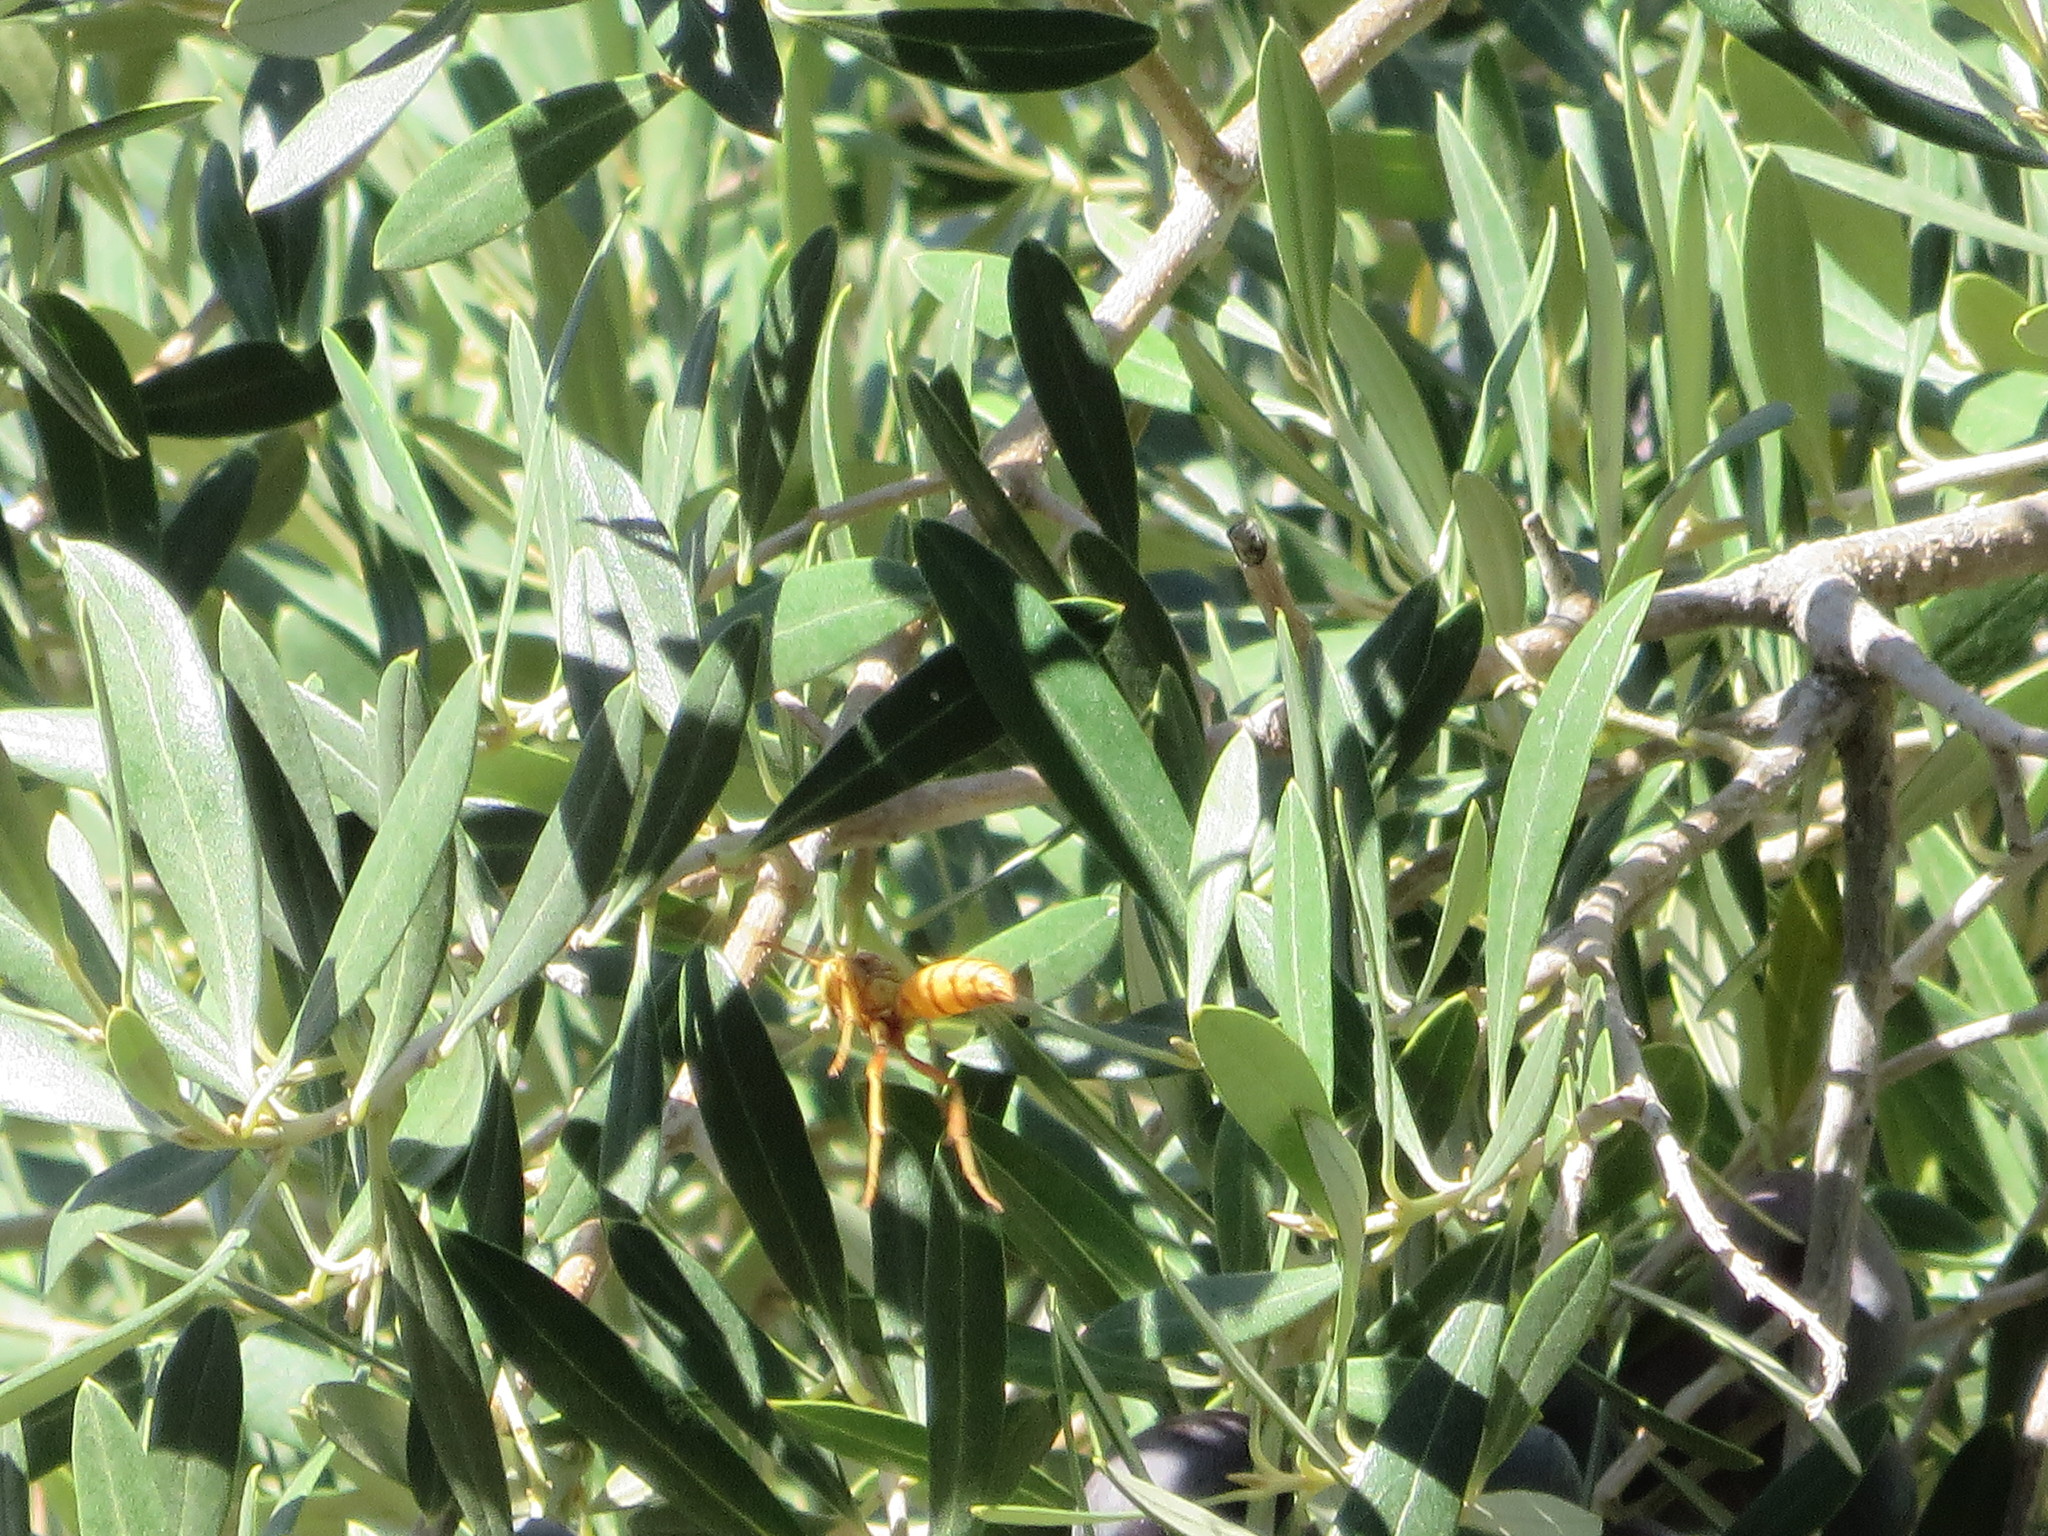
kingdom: Animalia
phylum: Arthropoda
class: Insecta
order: Hymenoptera
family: Eumenidae
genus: Polistes
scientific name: Polistes flavus
